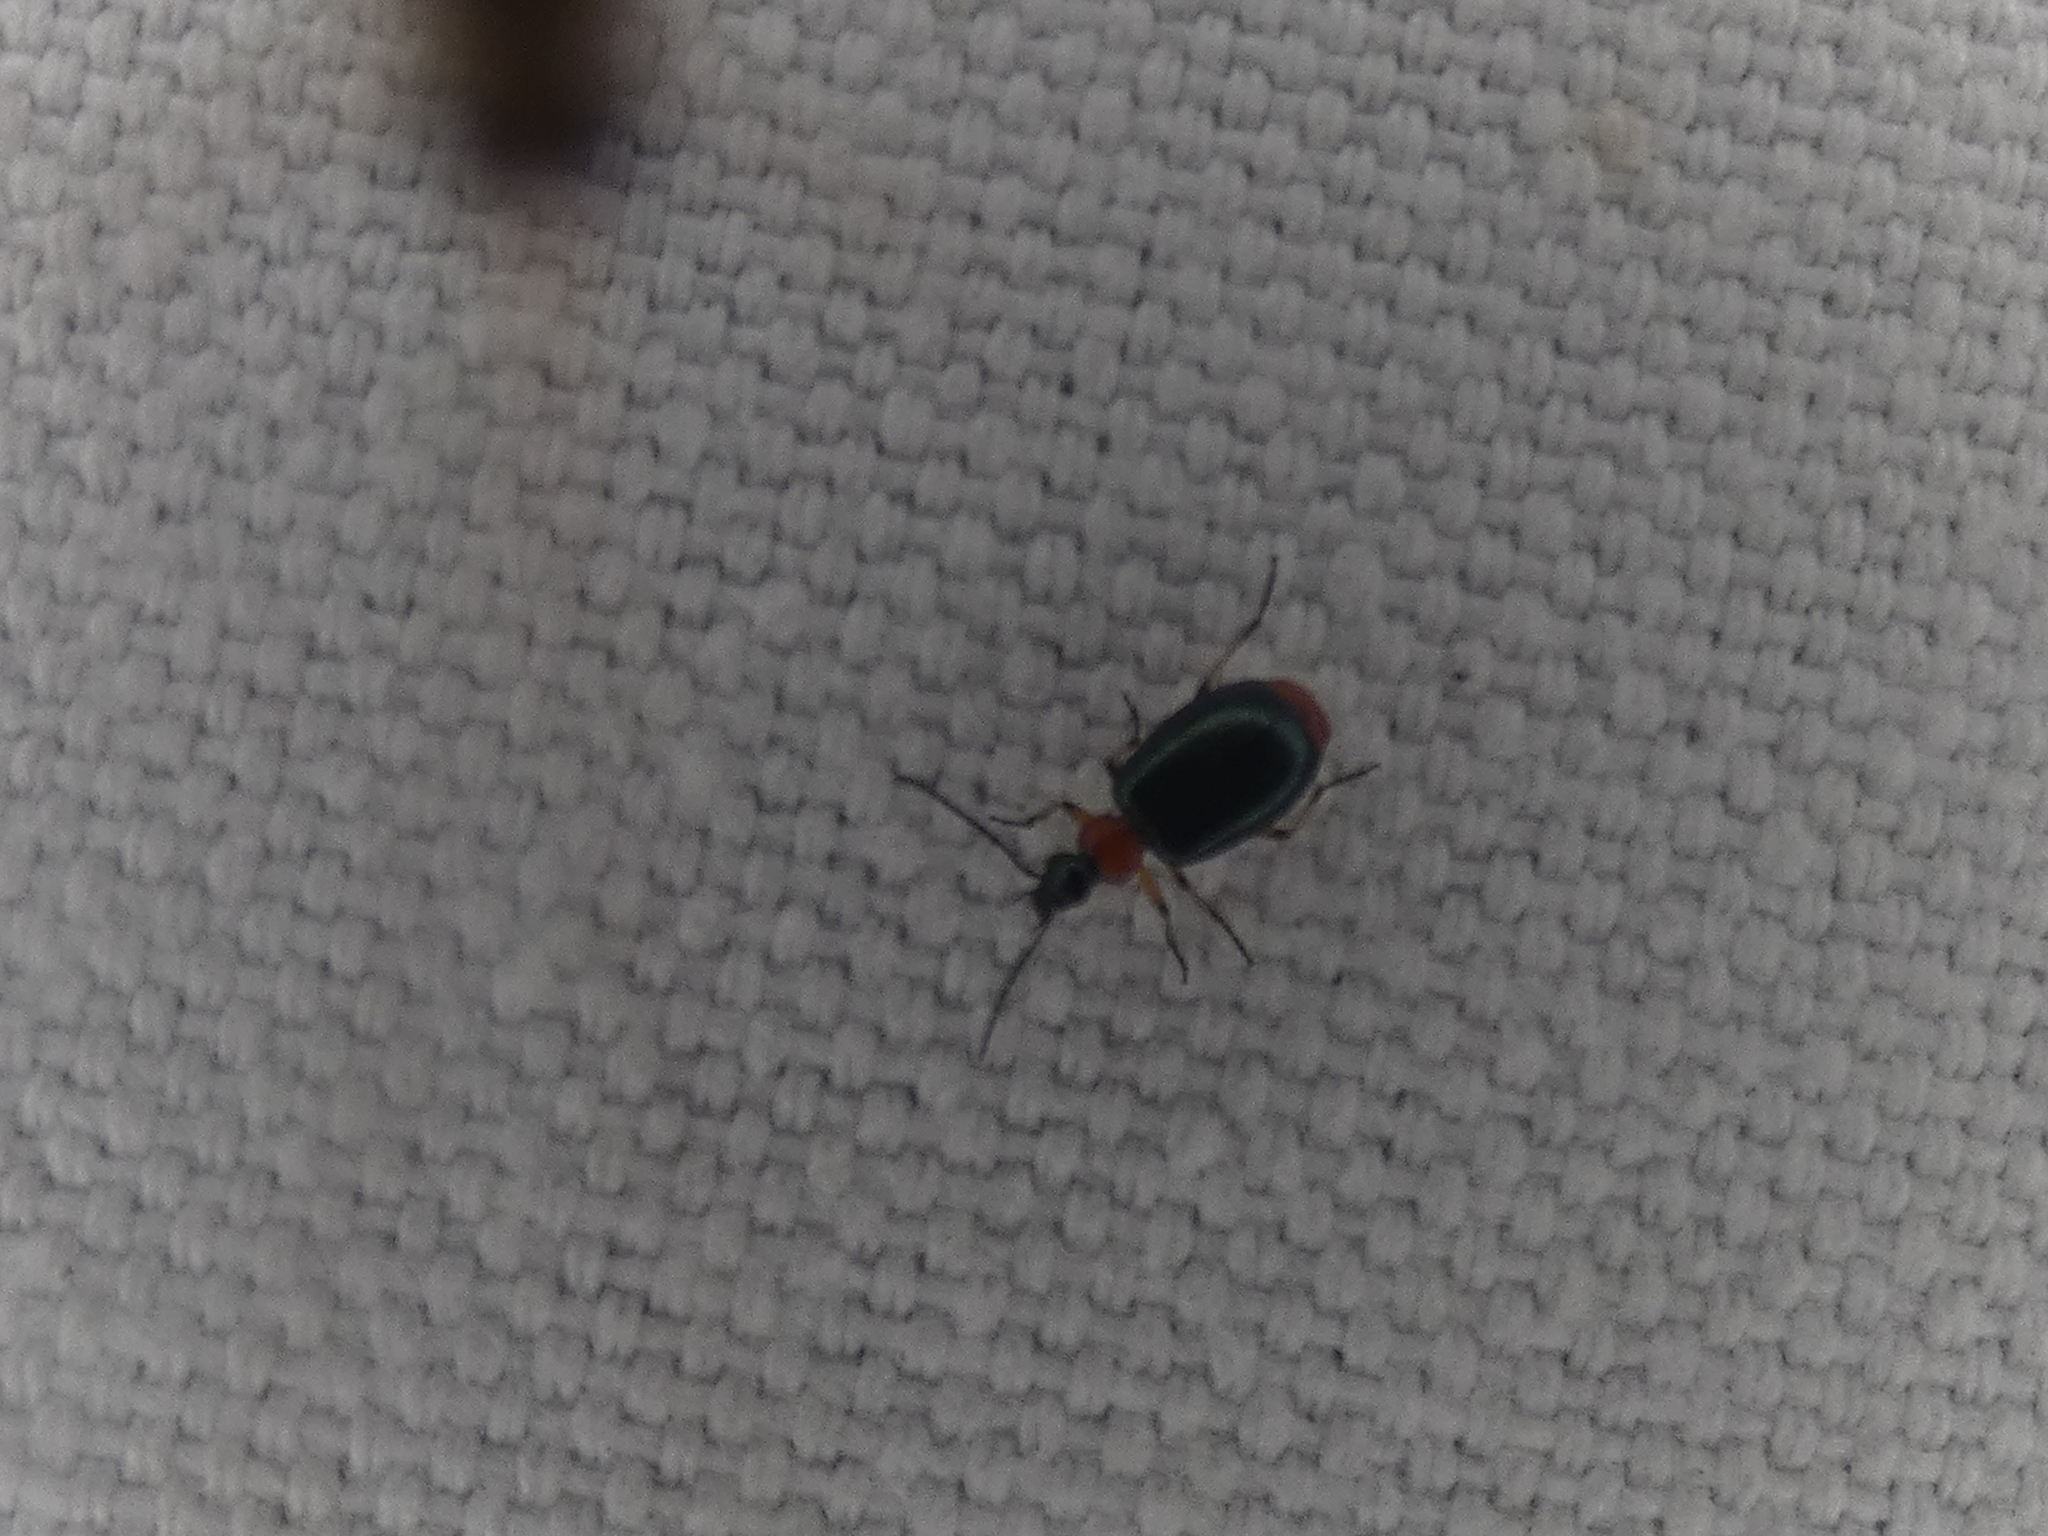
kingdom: Animalia
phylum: Arthropoda
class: Insecta
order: Coleoptera
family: Carabidae
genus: Lebia
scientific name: Lebia viridipennis
